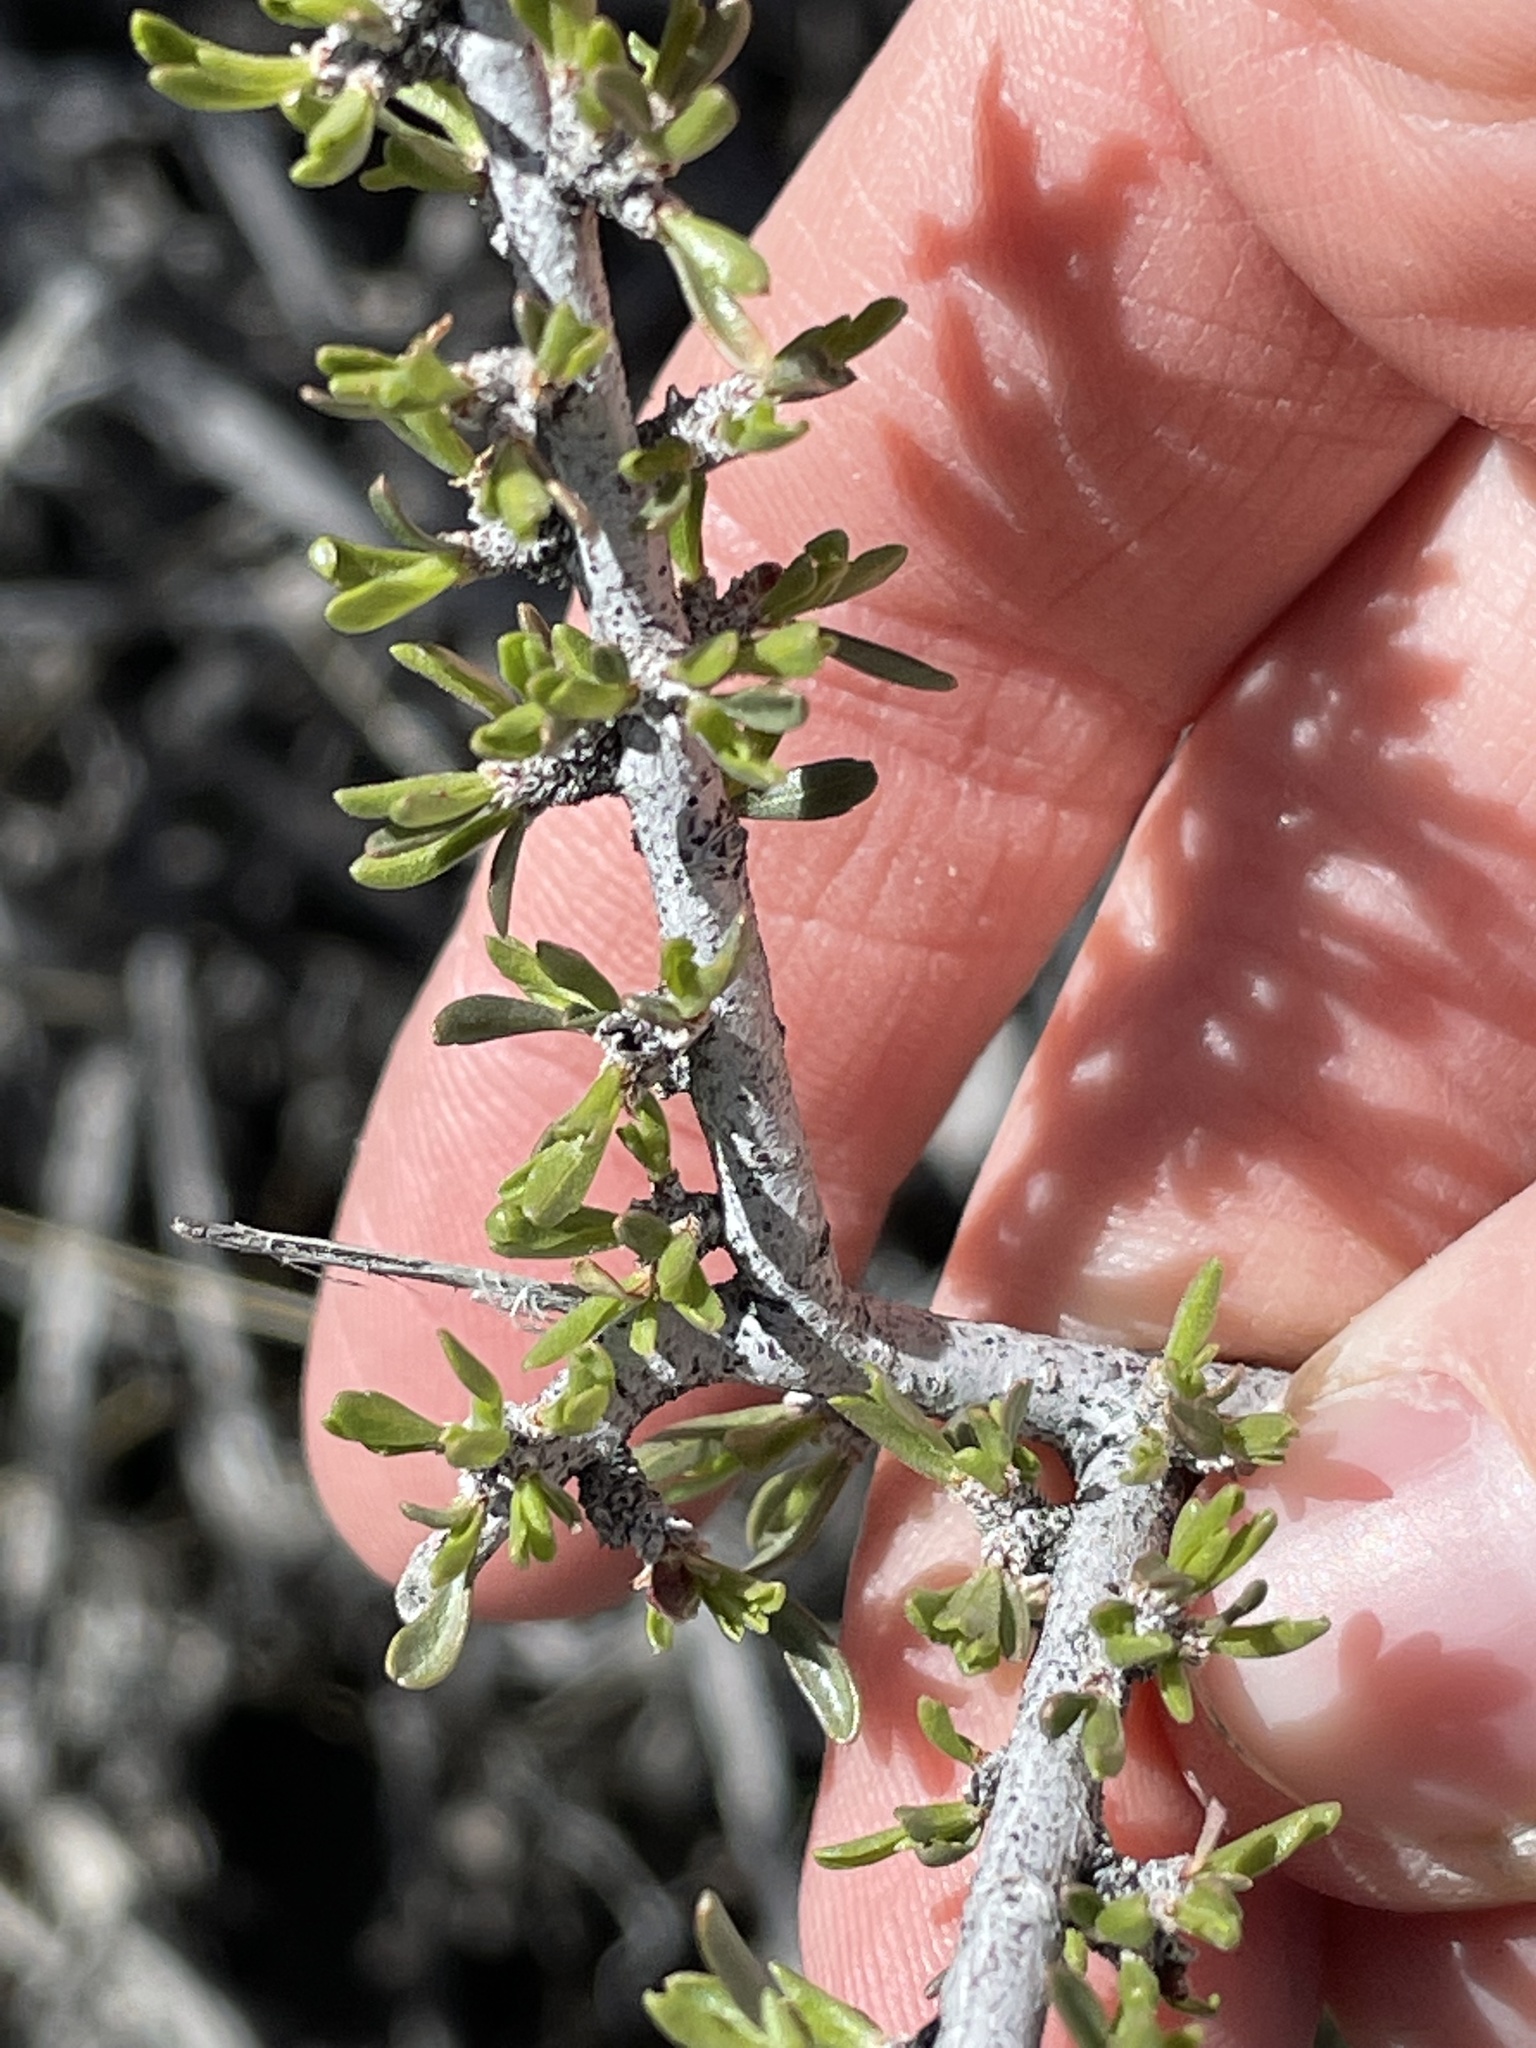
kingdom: Plantae
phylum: Tracheophyta
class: Magnoliopsida
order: Rosales
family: Rosaceae
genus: Prunus
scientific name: Prunus fasciculata
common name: Desert almond
